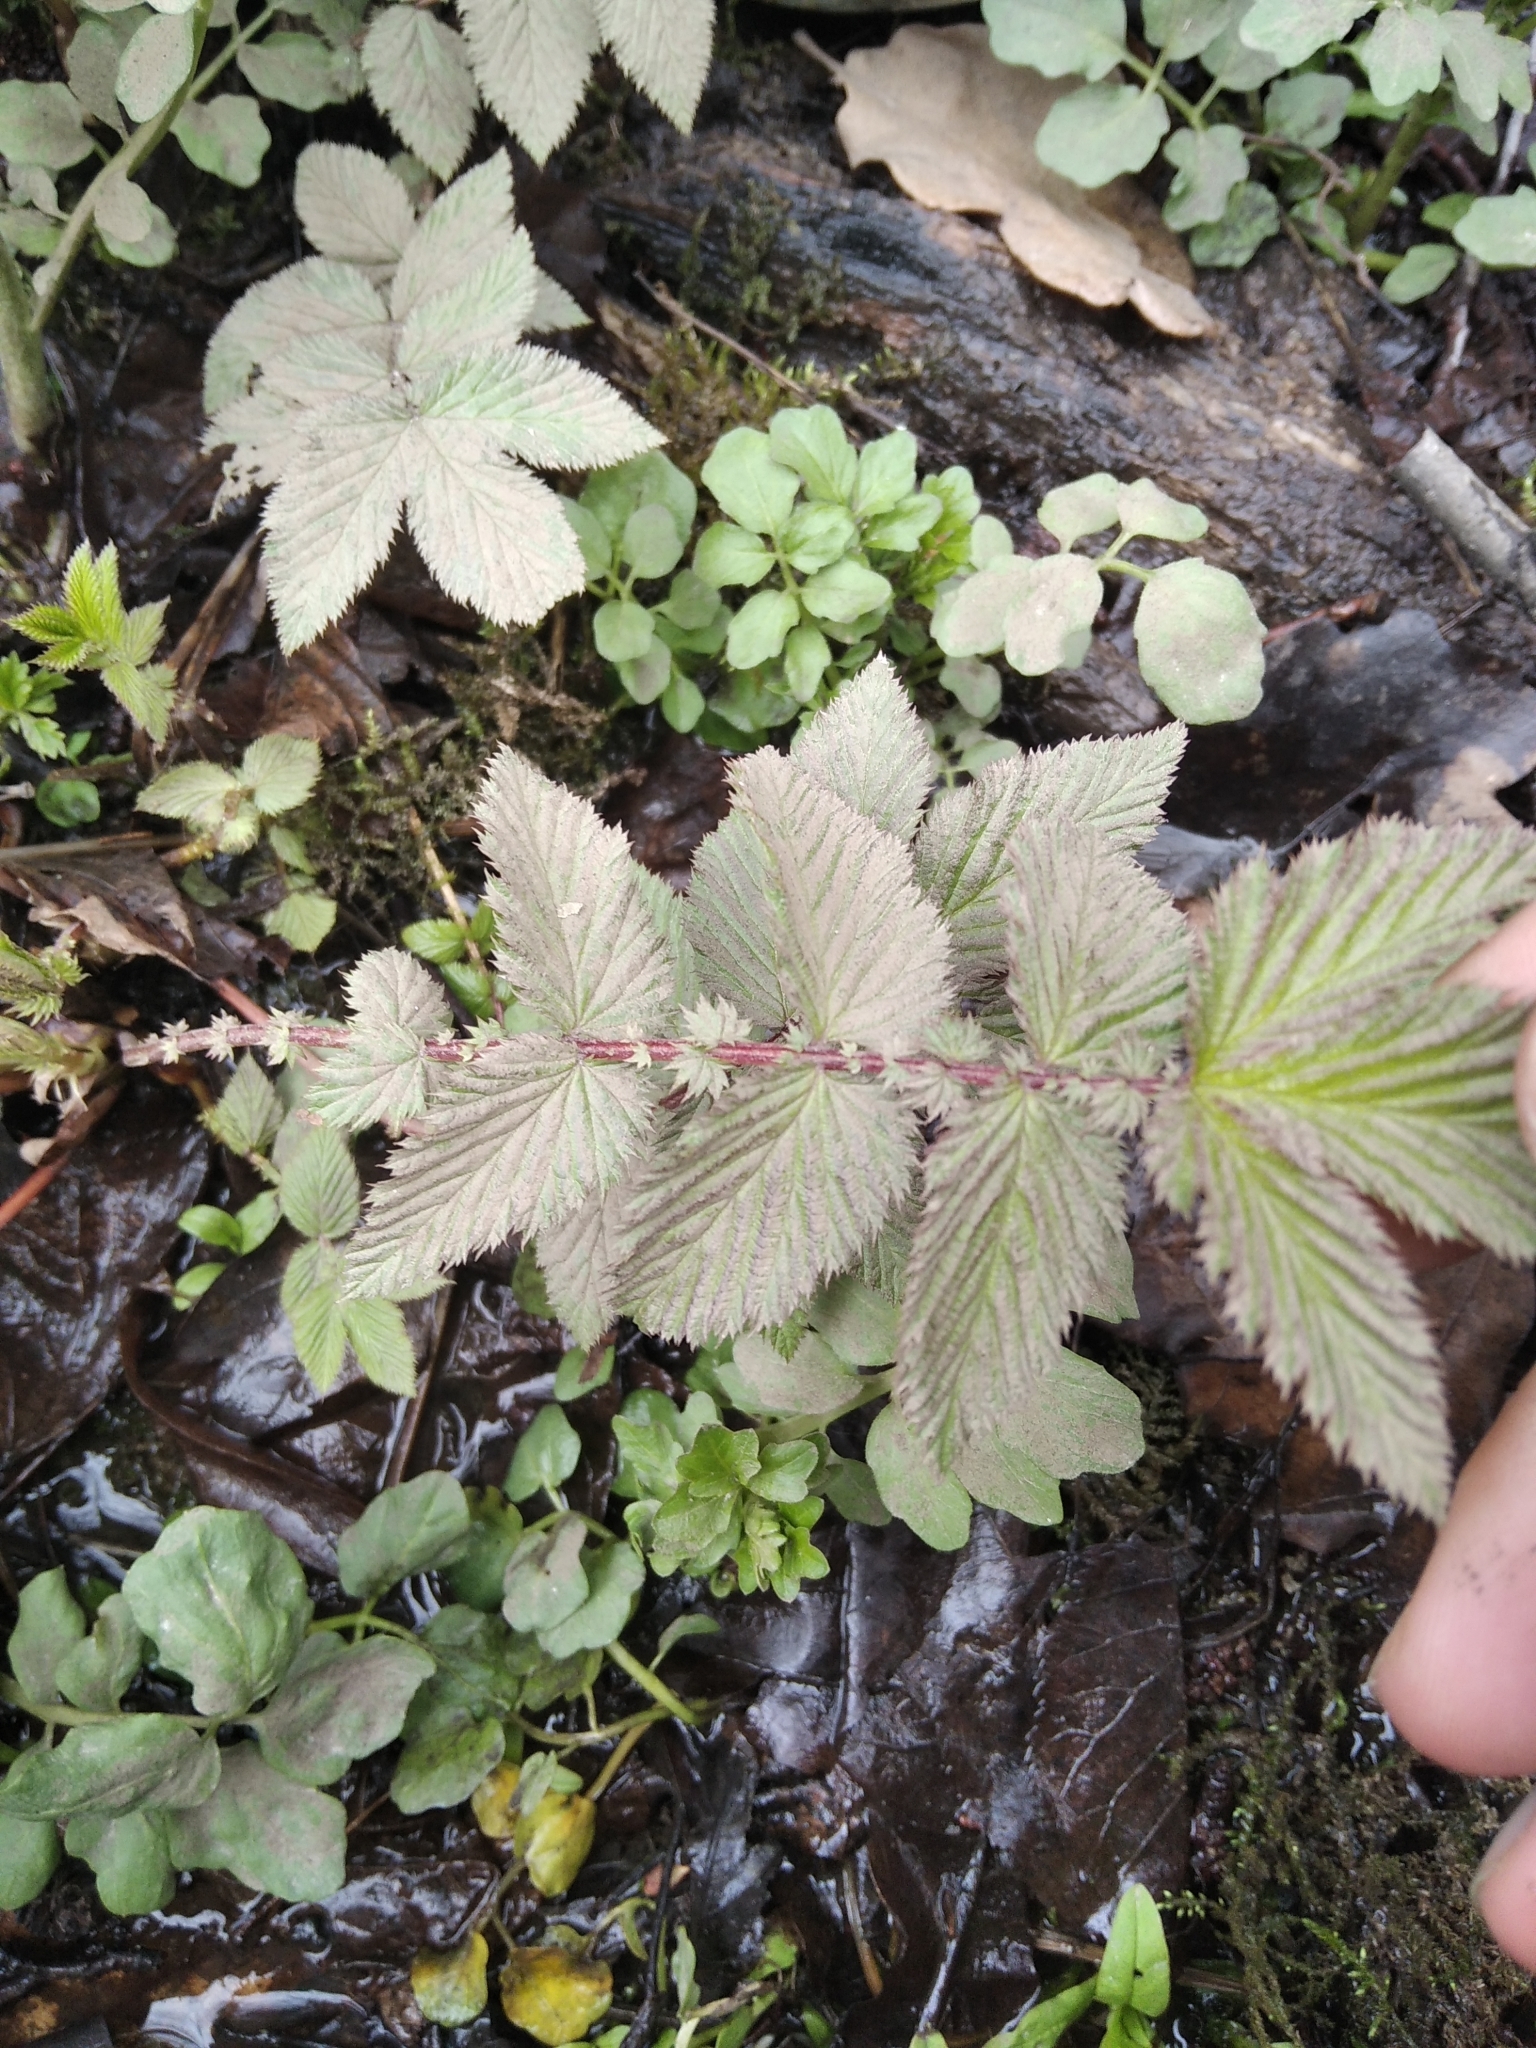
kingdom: Plantae
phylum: Tracheophyta
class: Magnoliopsida
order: Rosales
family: Rosaceae
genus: Filipendula
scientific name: Filipendula ulmaria
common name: Meadowsweet
